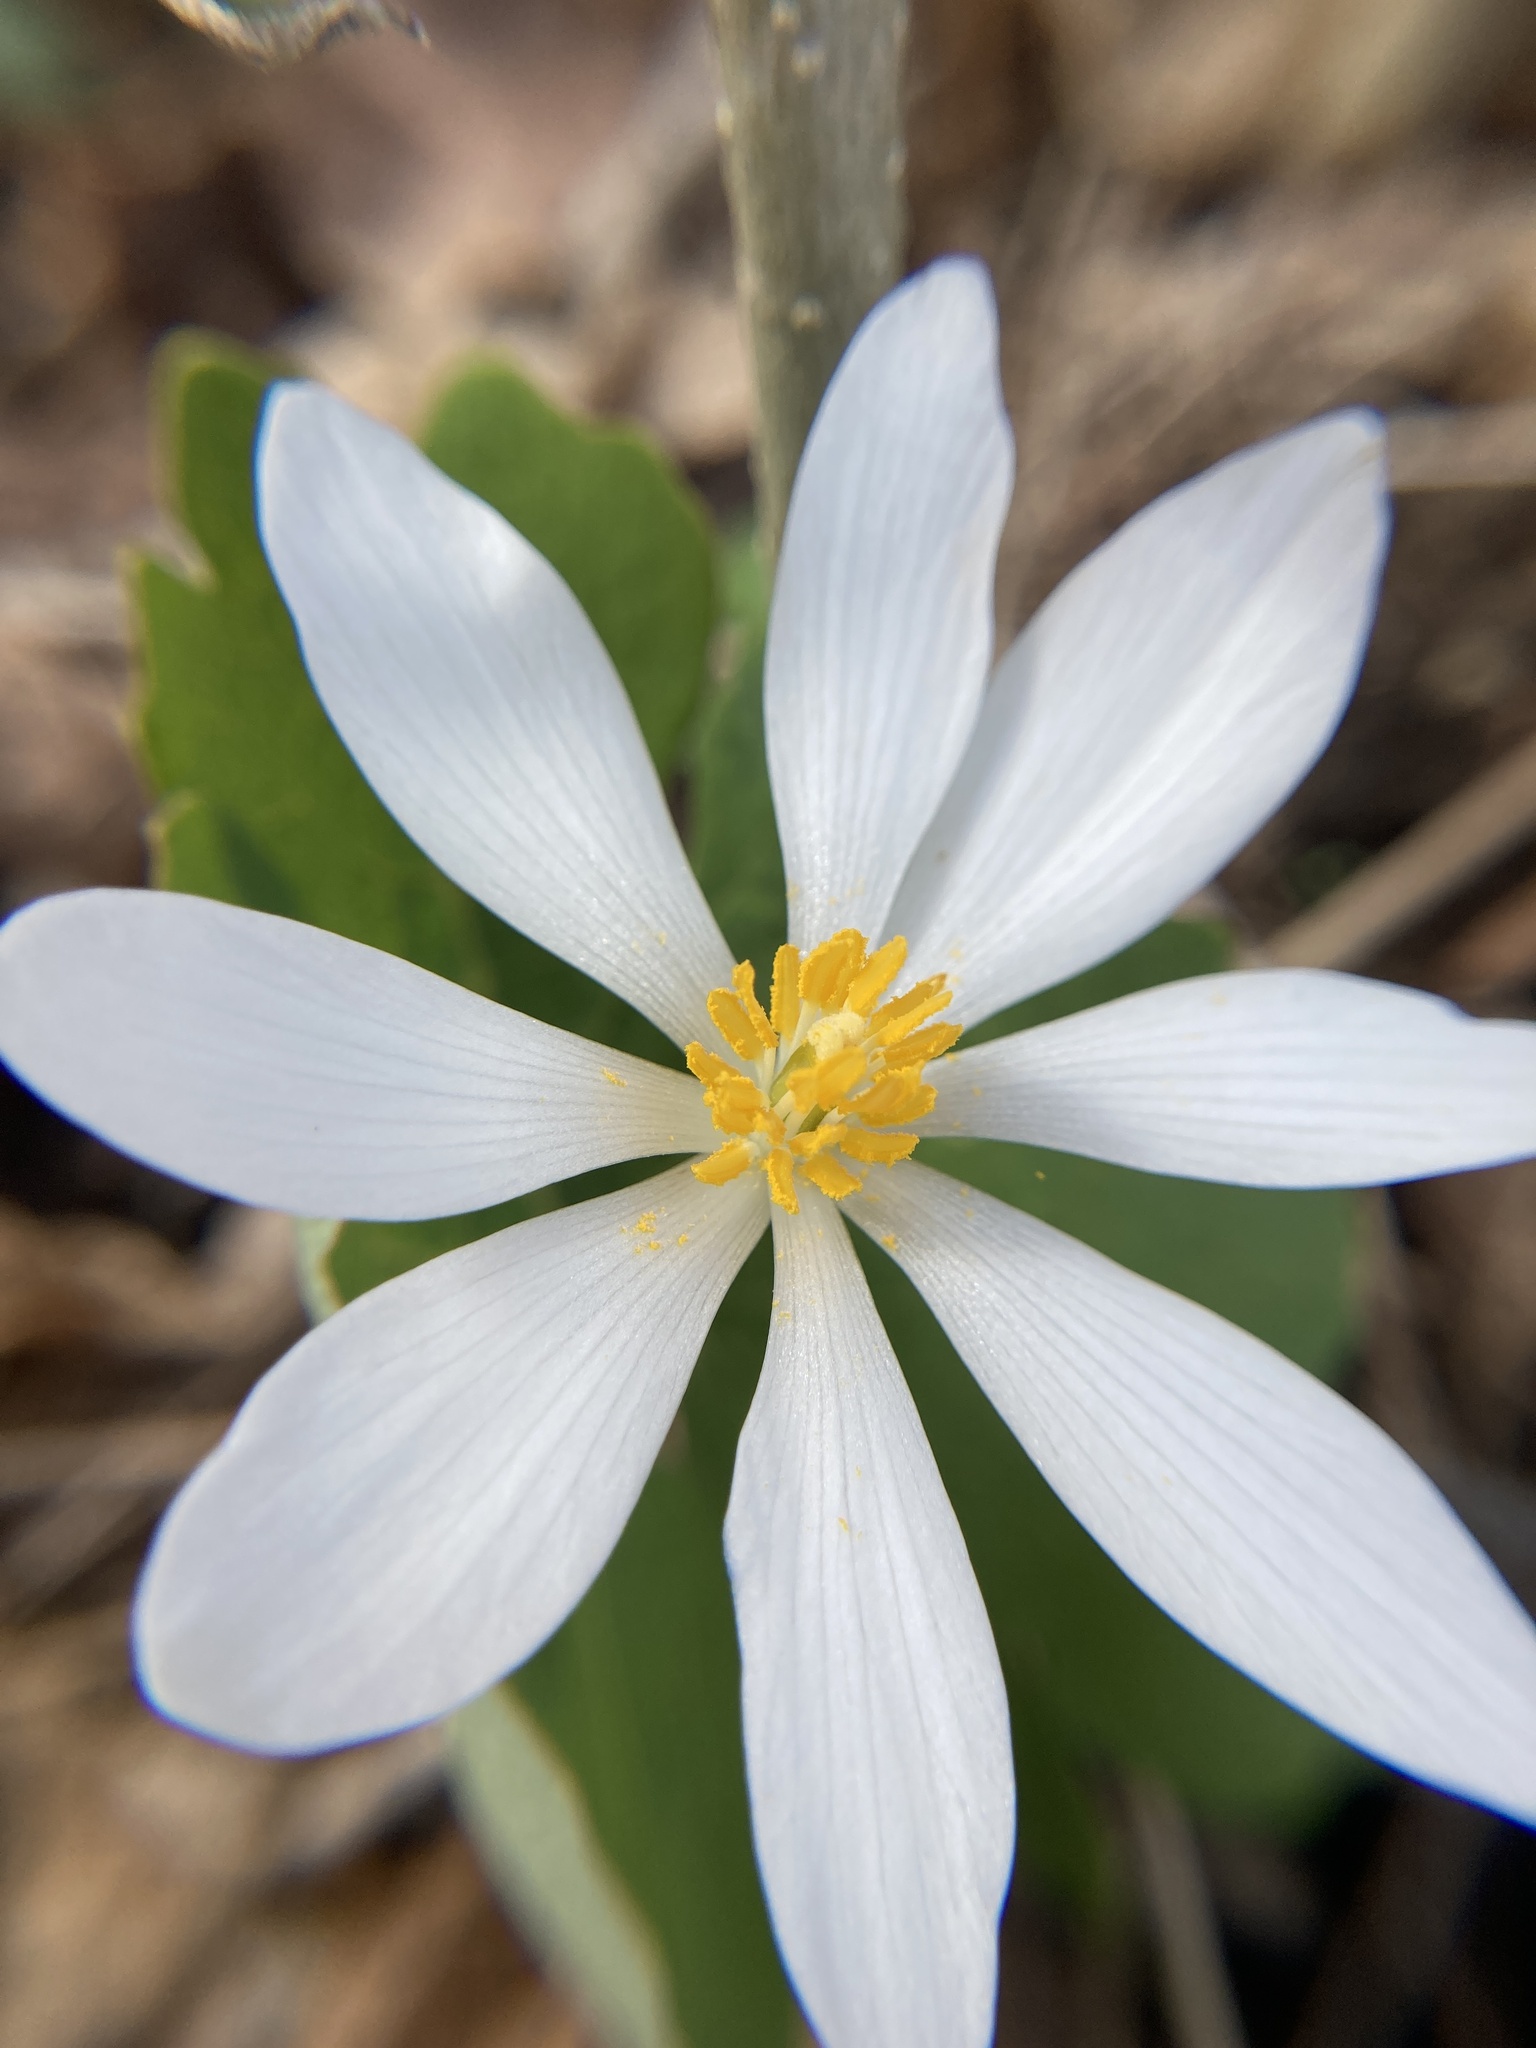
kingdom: Plantae
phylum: Tracheophyta
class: Magnoliopsida
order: Ranunculales
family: Papaveraceae
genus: Sanguinaria
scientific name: Sanguinaria canadensis
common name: Bloodroot
